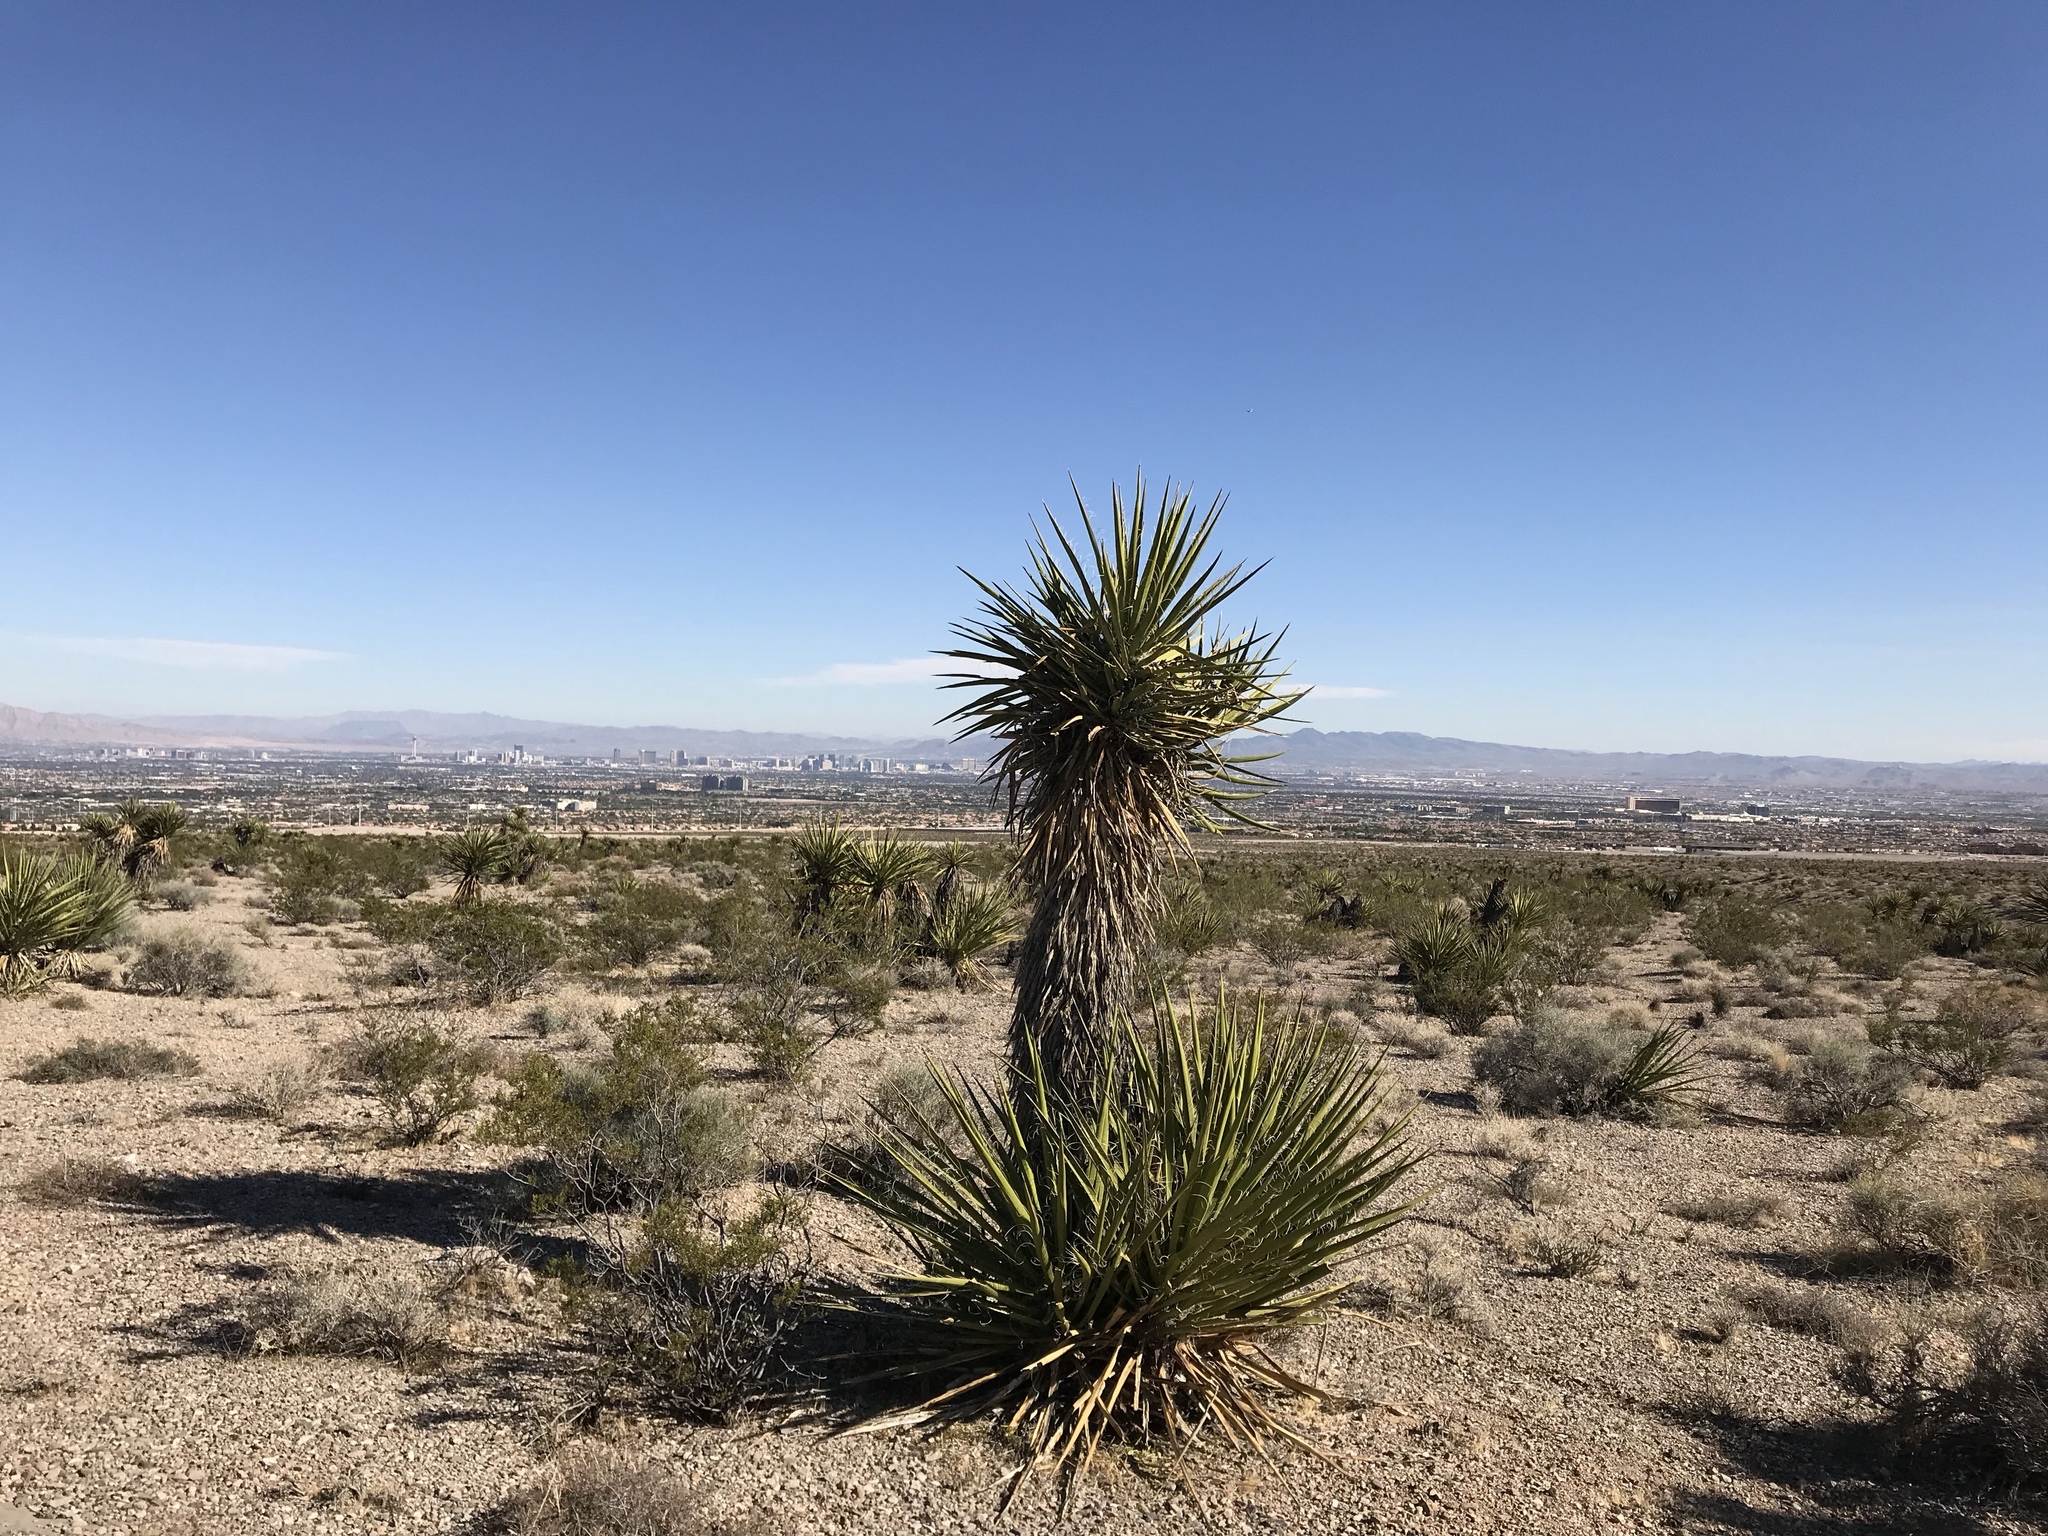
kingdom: Plantae
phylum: Tracheophyta
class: Liliopsida
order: Asparagales
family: Asparagaceae
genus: Yucca
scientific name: Yucca schidigera
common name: Mojave yucca
